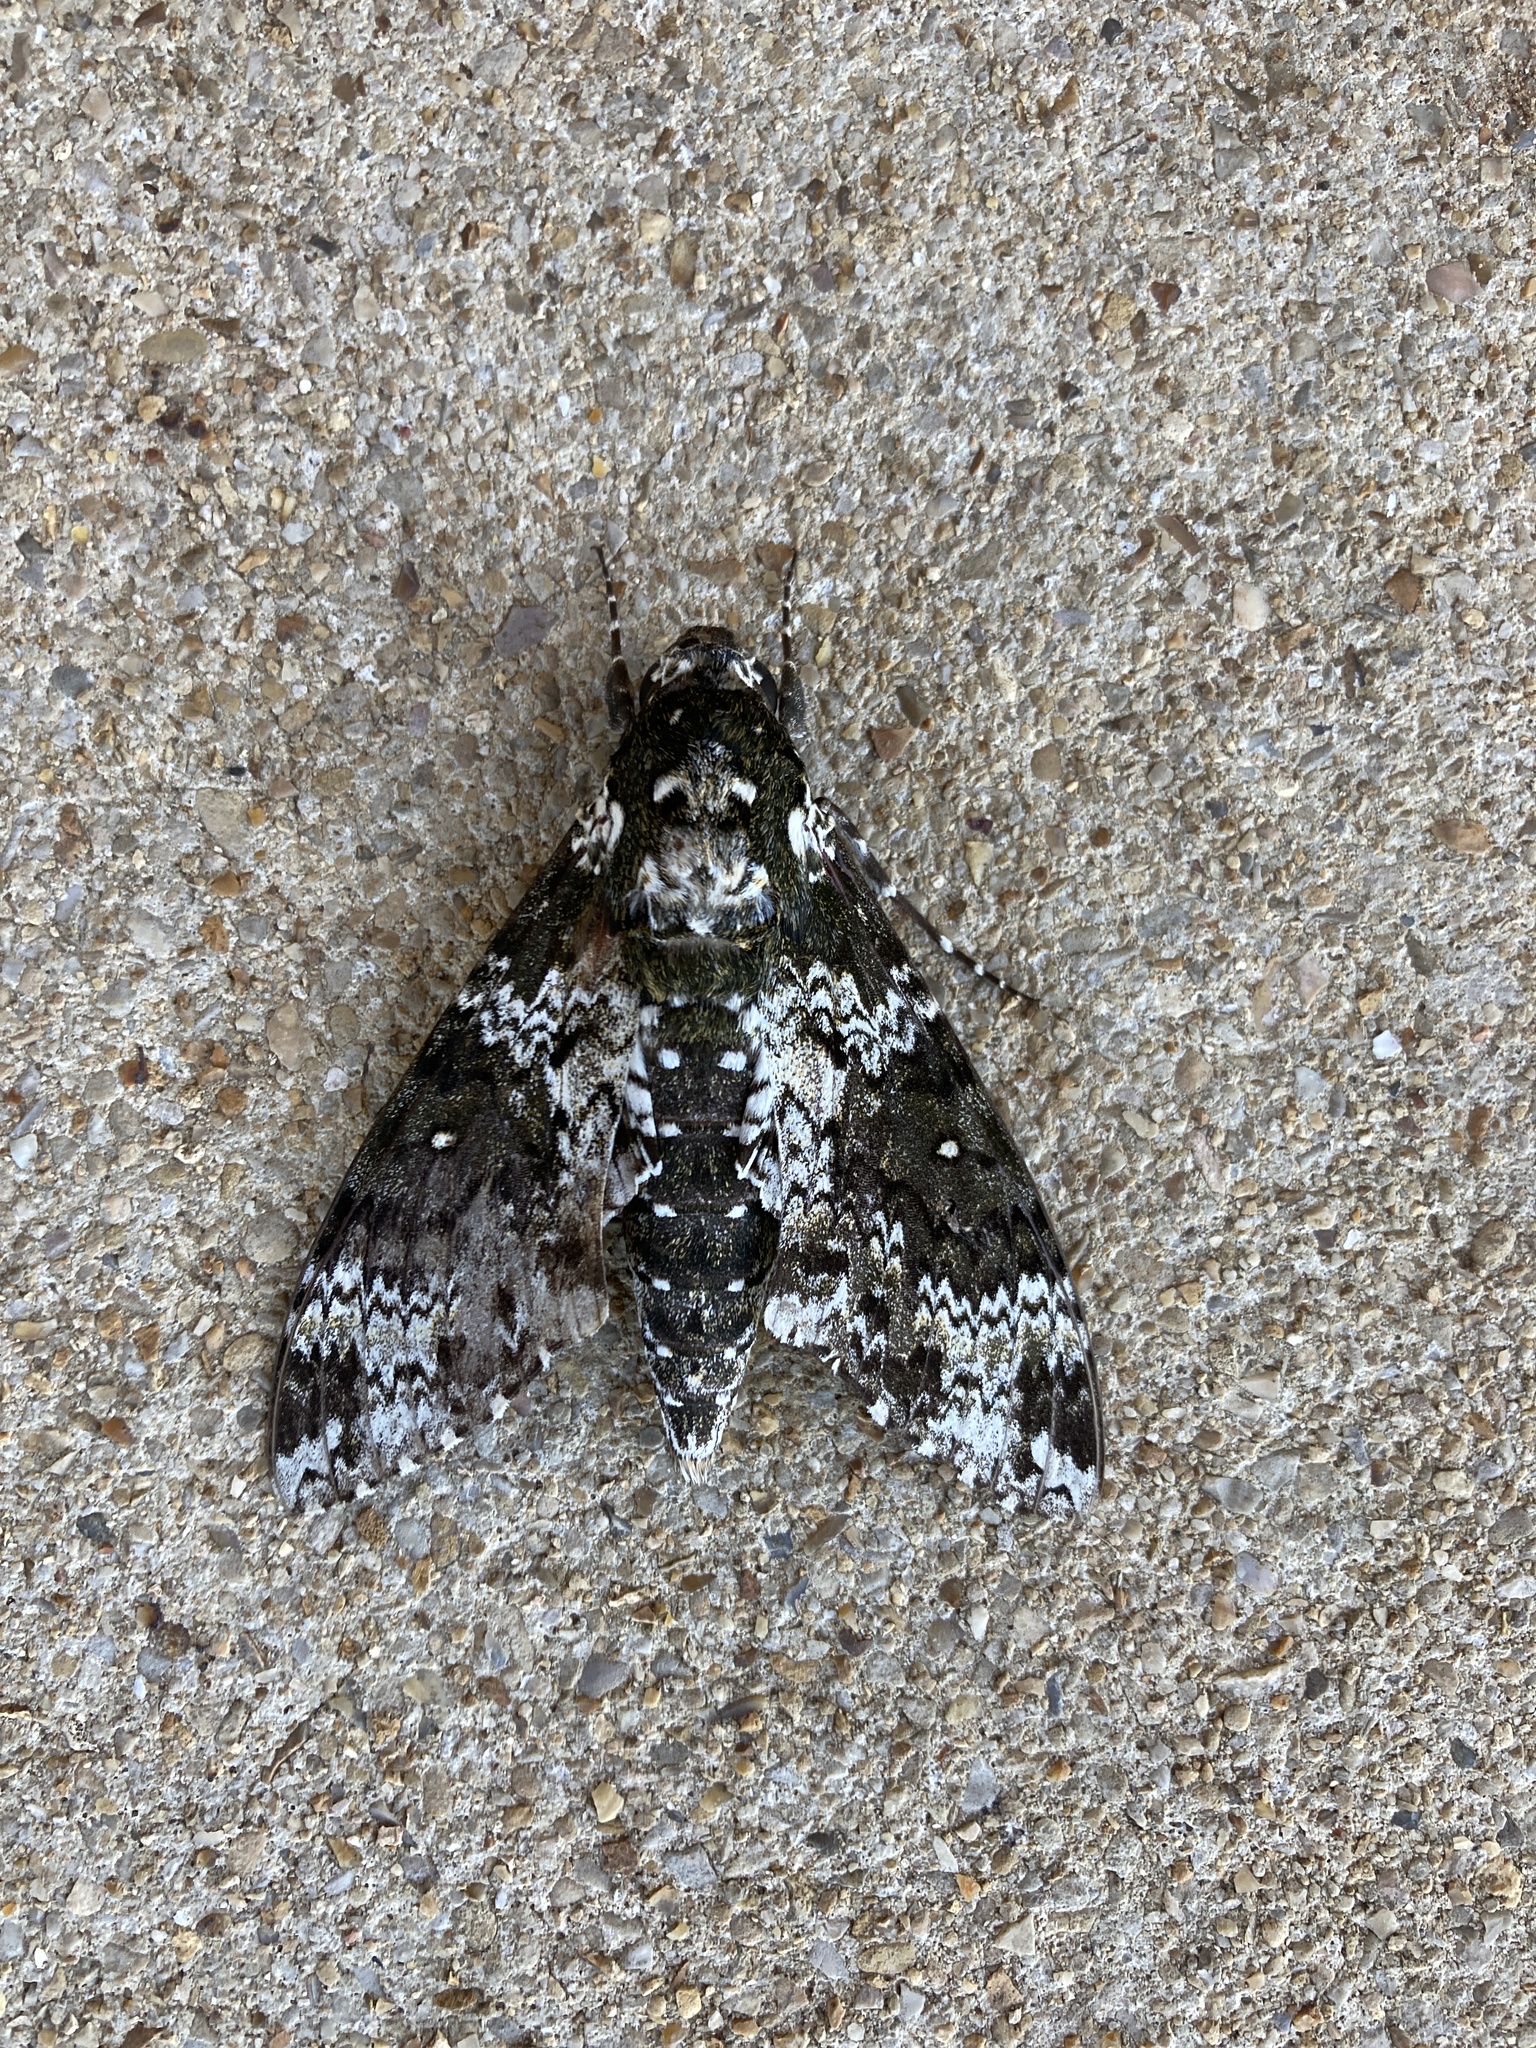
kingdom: Animalia
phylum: Arthropoda
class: Insecta
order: Lepidoptera
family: Sphingidae
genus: Manduca
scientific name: Manduca rustica
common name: Rustic sphinx
